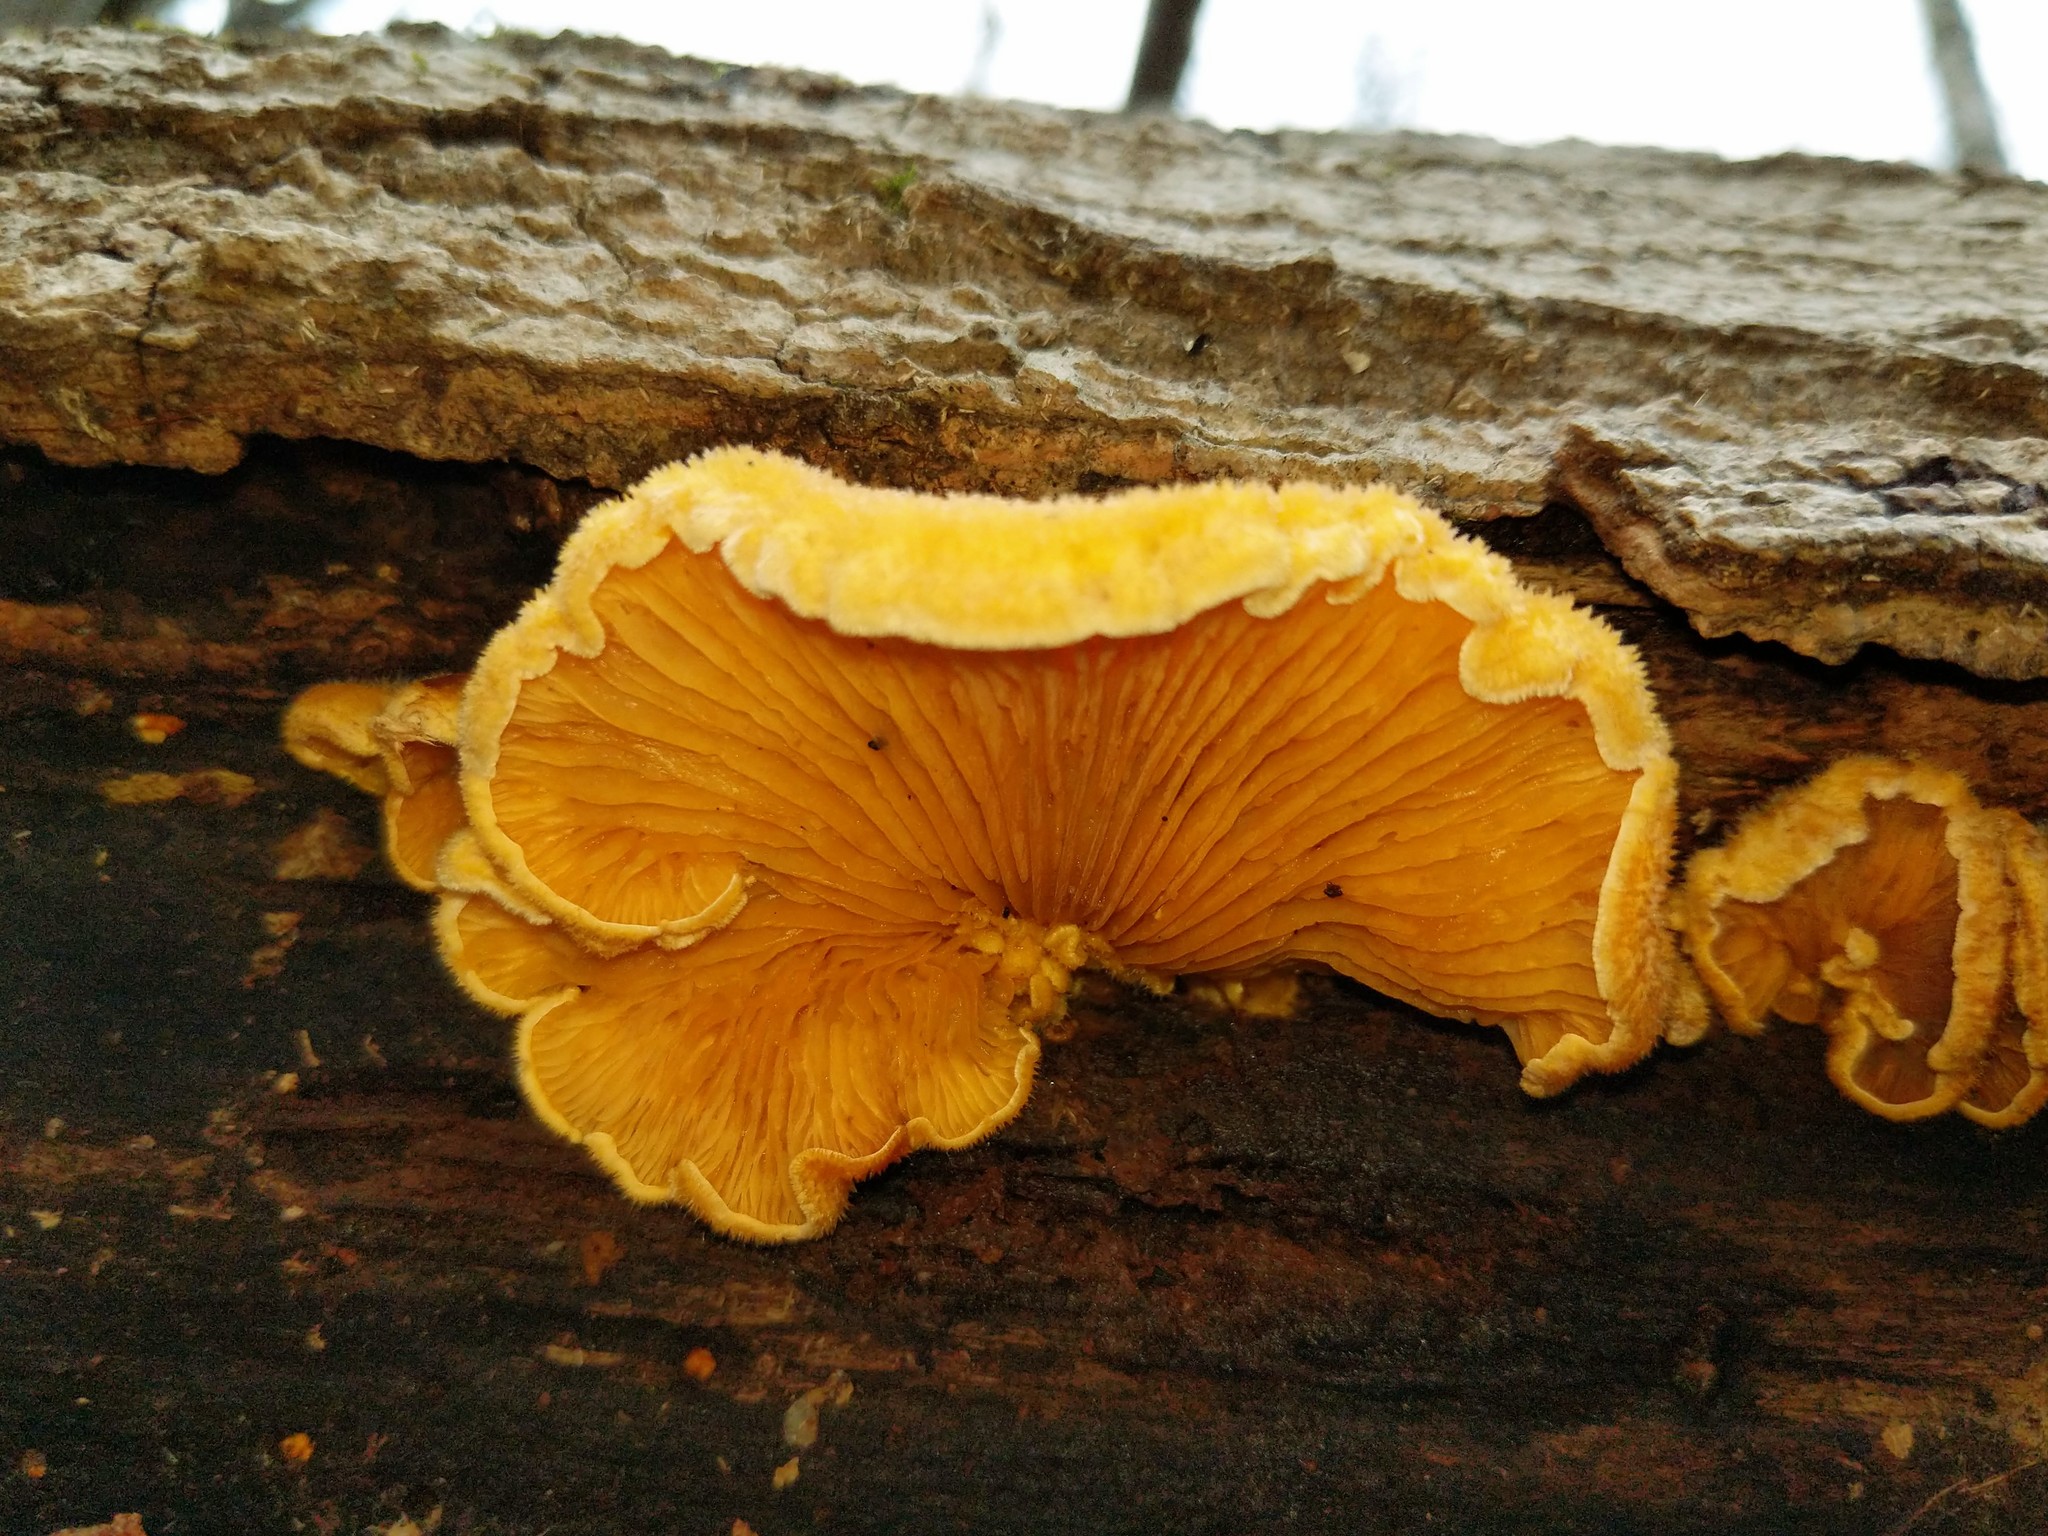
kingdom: Fungi
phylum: Basidiomycota
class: Agaricomycetes
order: Agaricales
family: Phyllotopsidaceae
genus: Phyllotopsis
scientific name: Phyllotopsis nidulans
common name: Orange mock oyster
